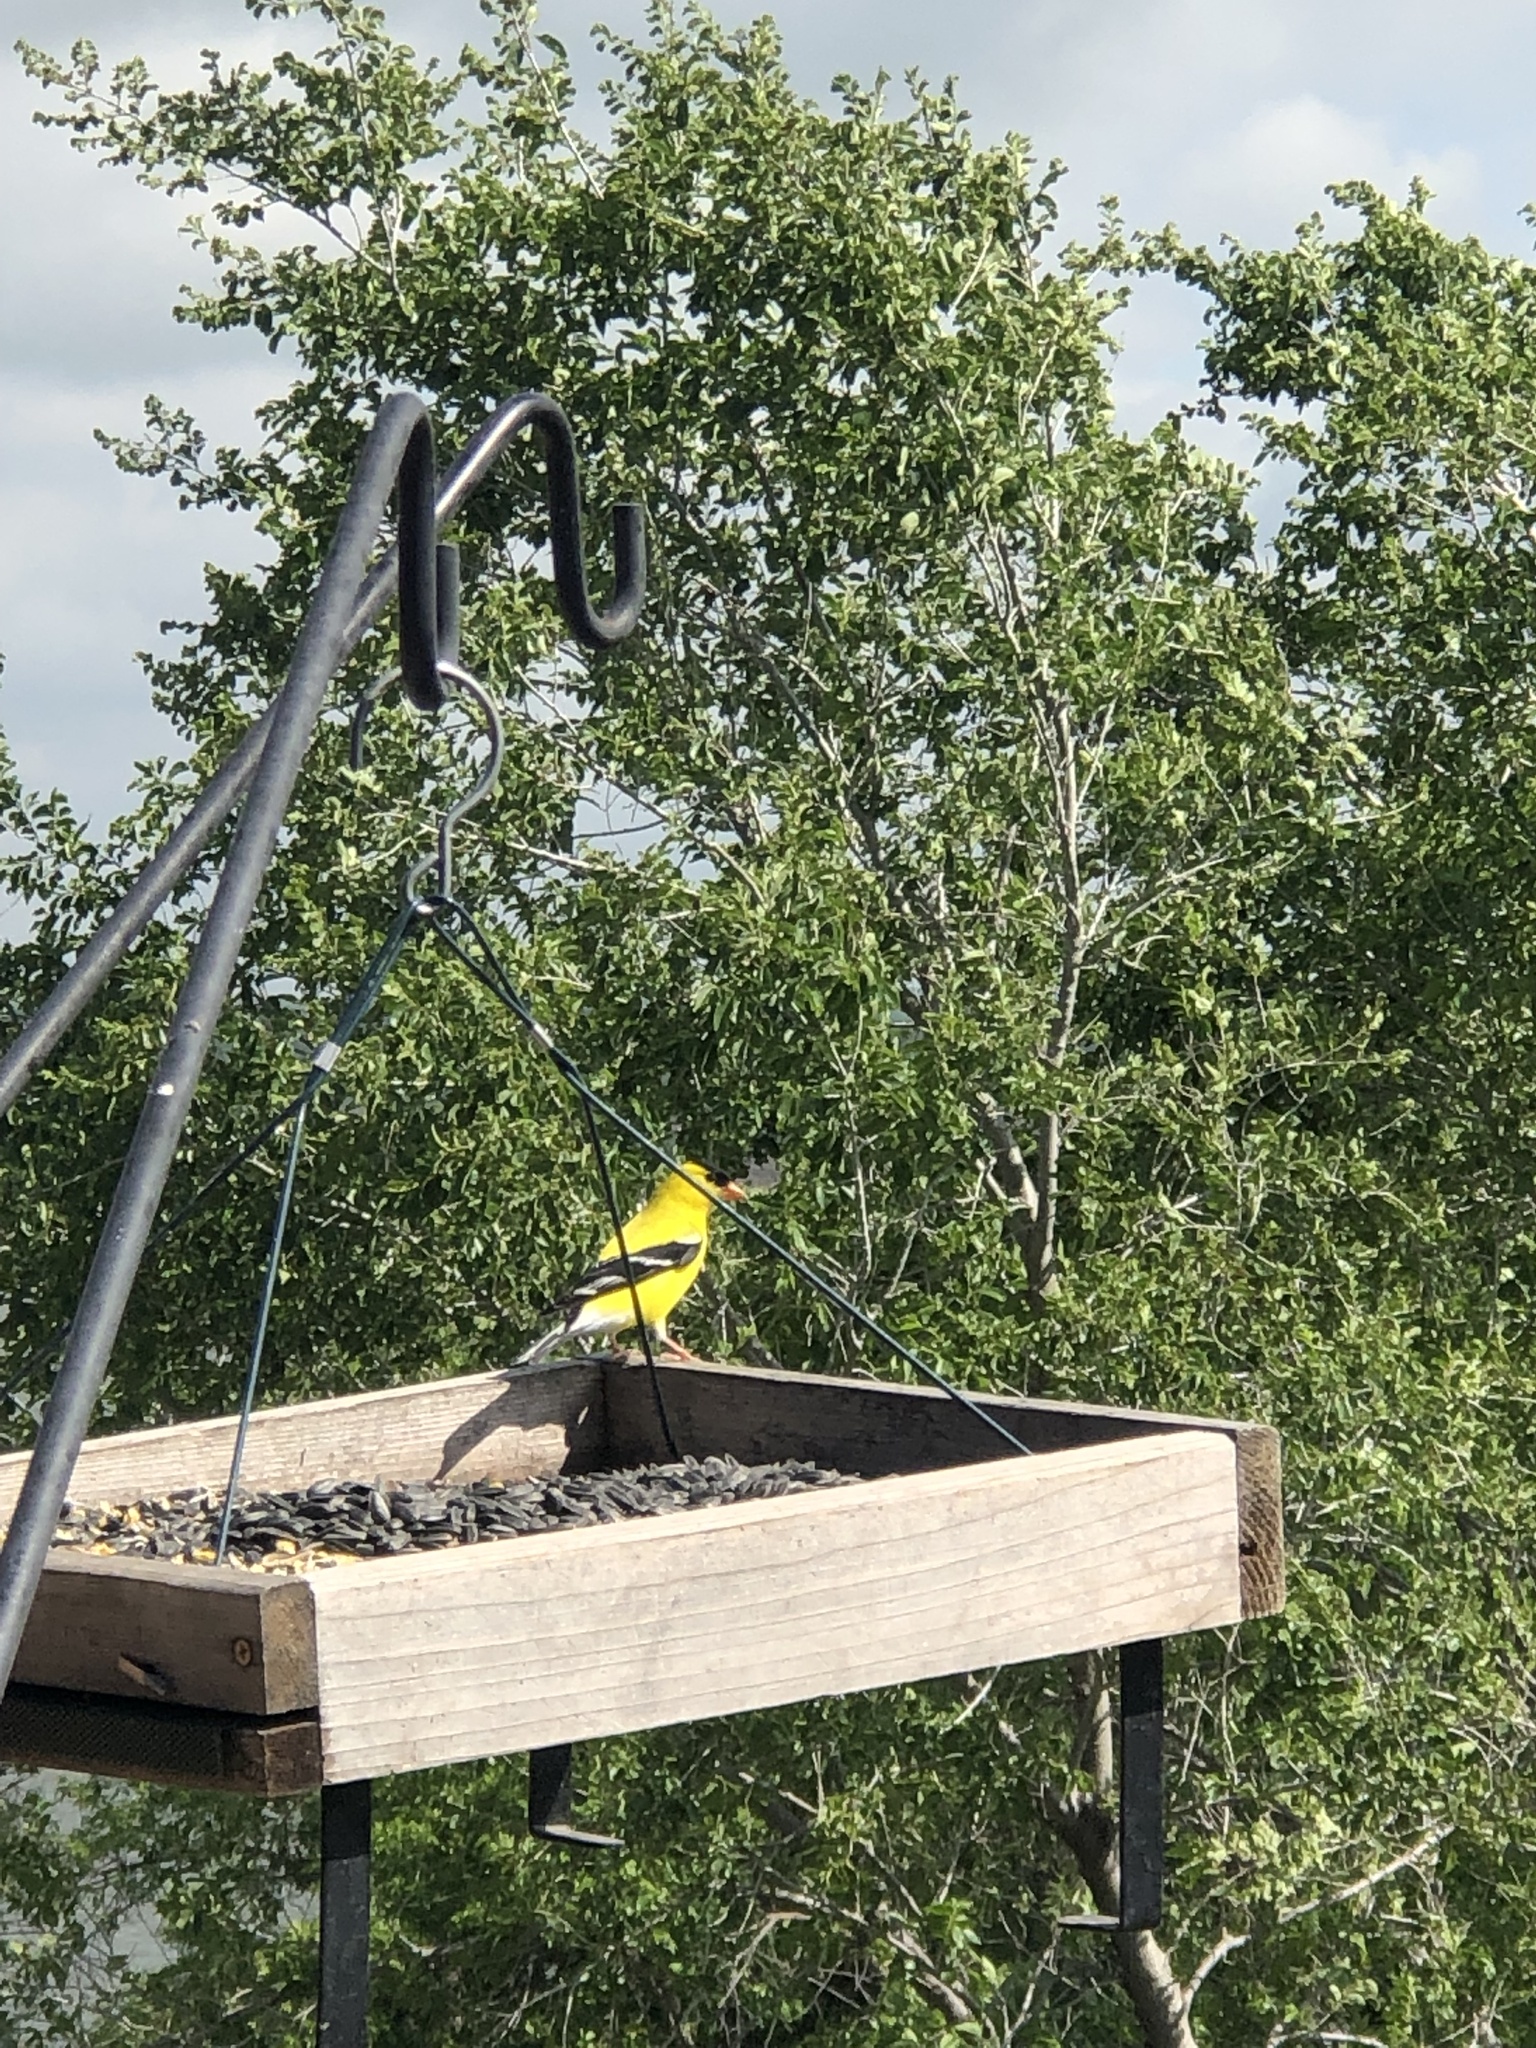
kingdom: Animalia
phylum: Chordata
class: Aves
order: Passeriformes
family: Fringillidae
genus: Spinus
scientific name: Spinus tristis
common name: American goldfinch
